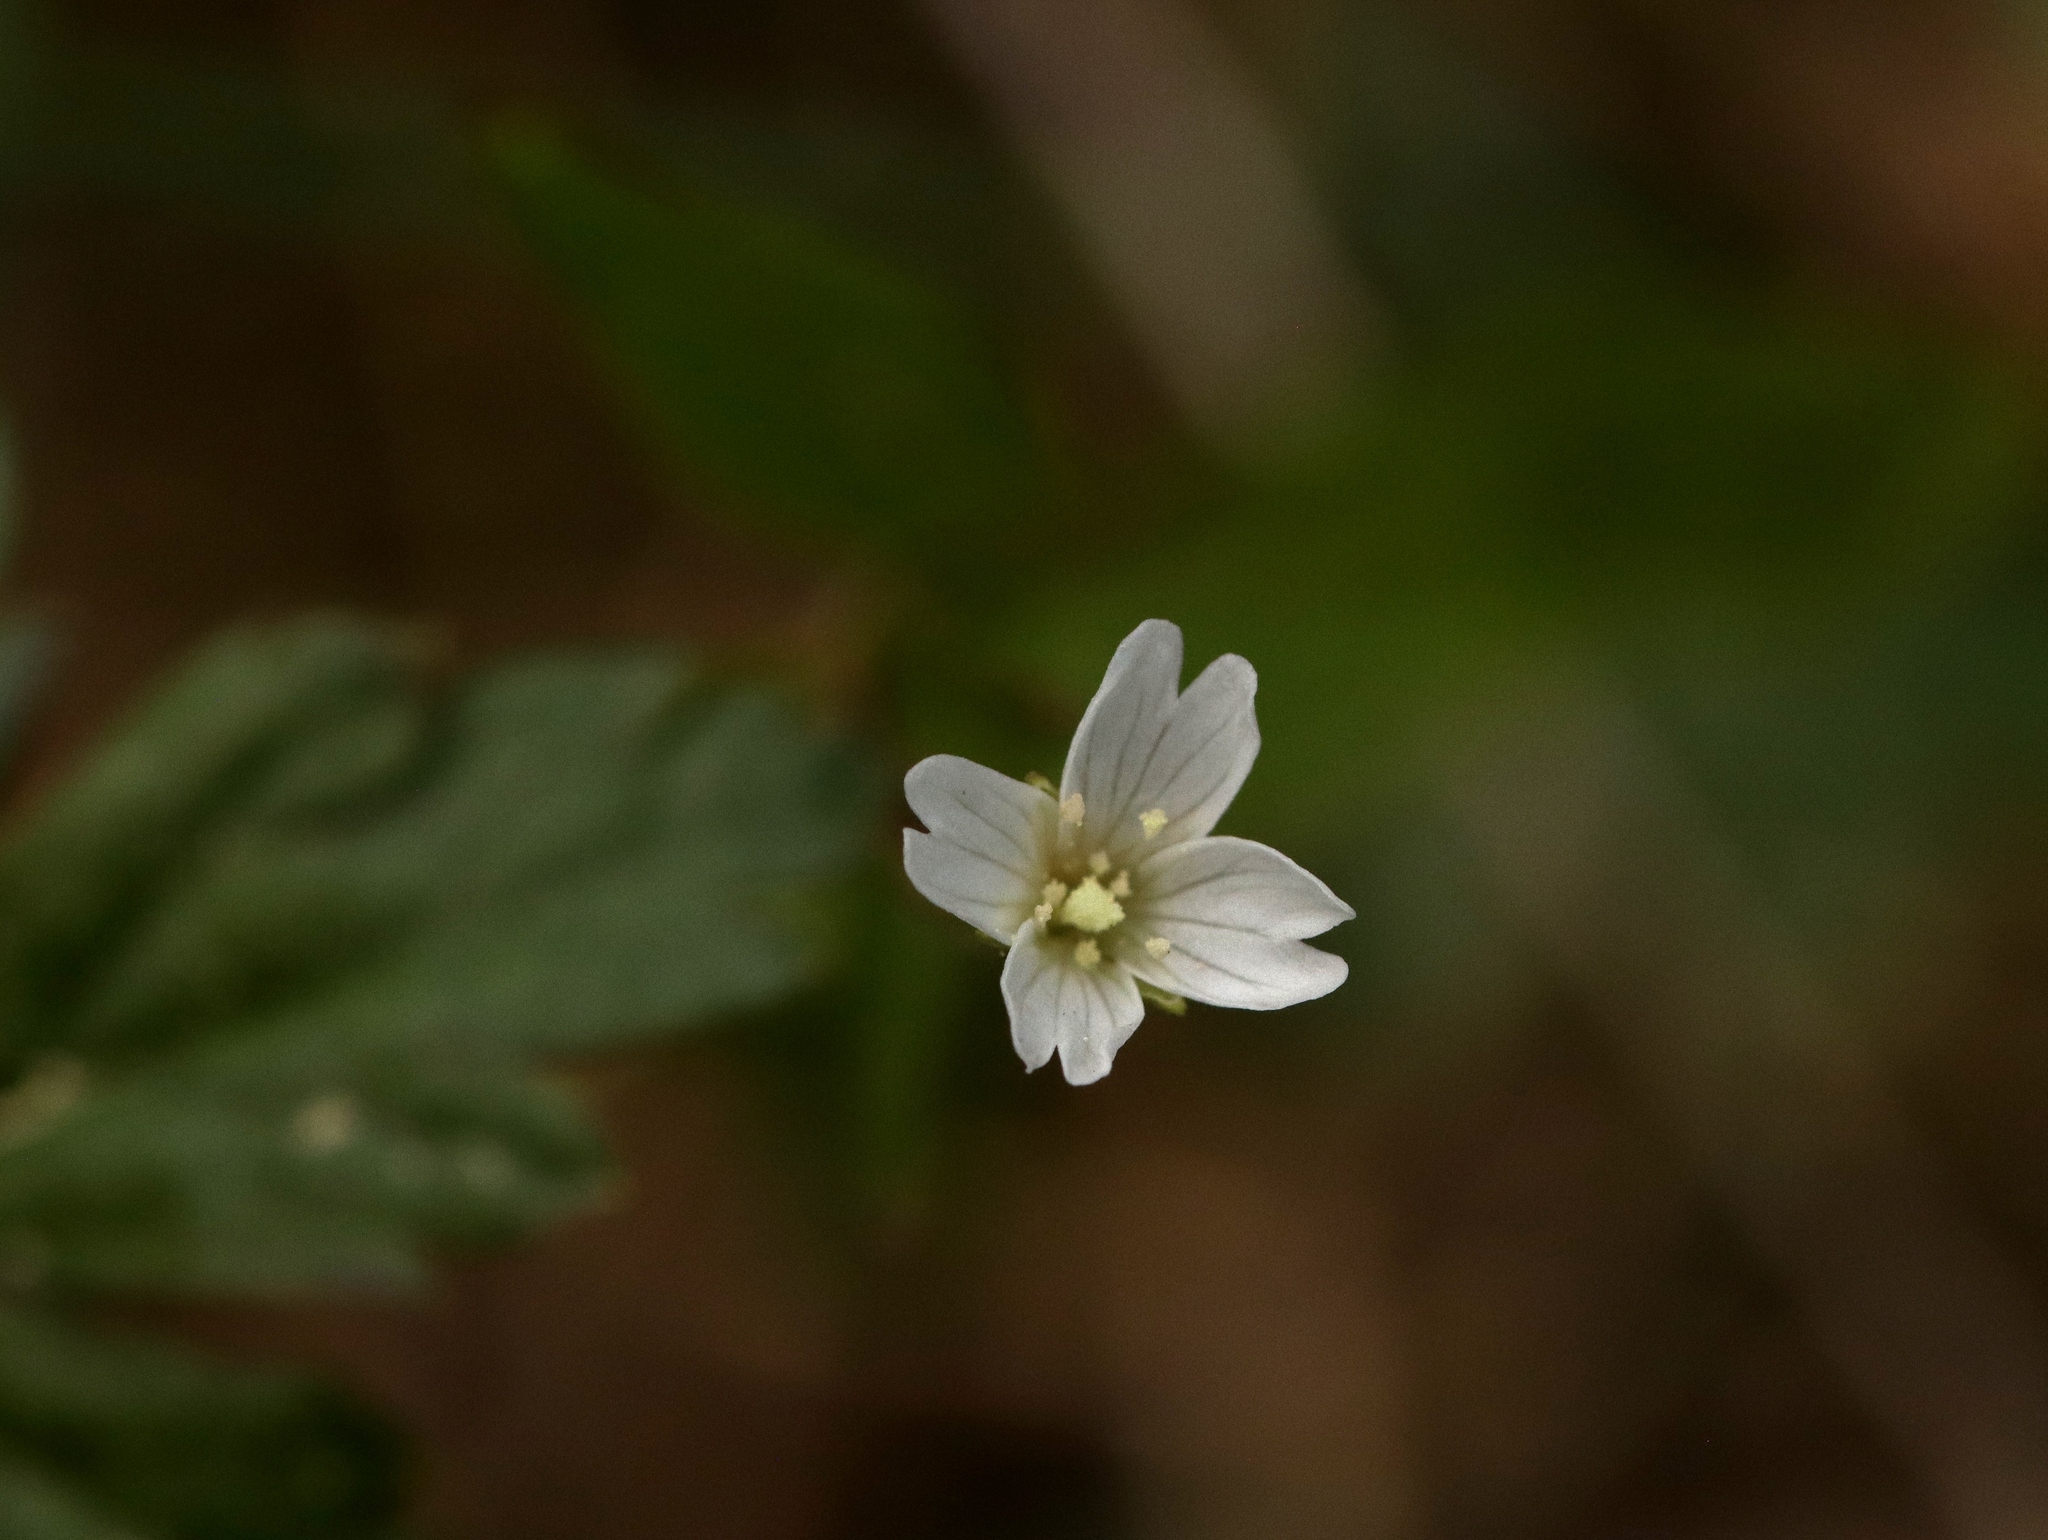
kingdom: Plantae
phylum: Tracheophyta
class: Magnoliopsida
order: Myrtales
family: Onagraceae
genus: Epilobium
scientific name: Epilobium minutum
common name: Chaparral willowherb
